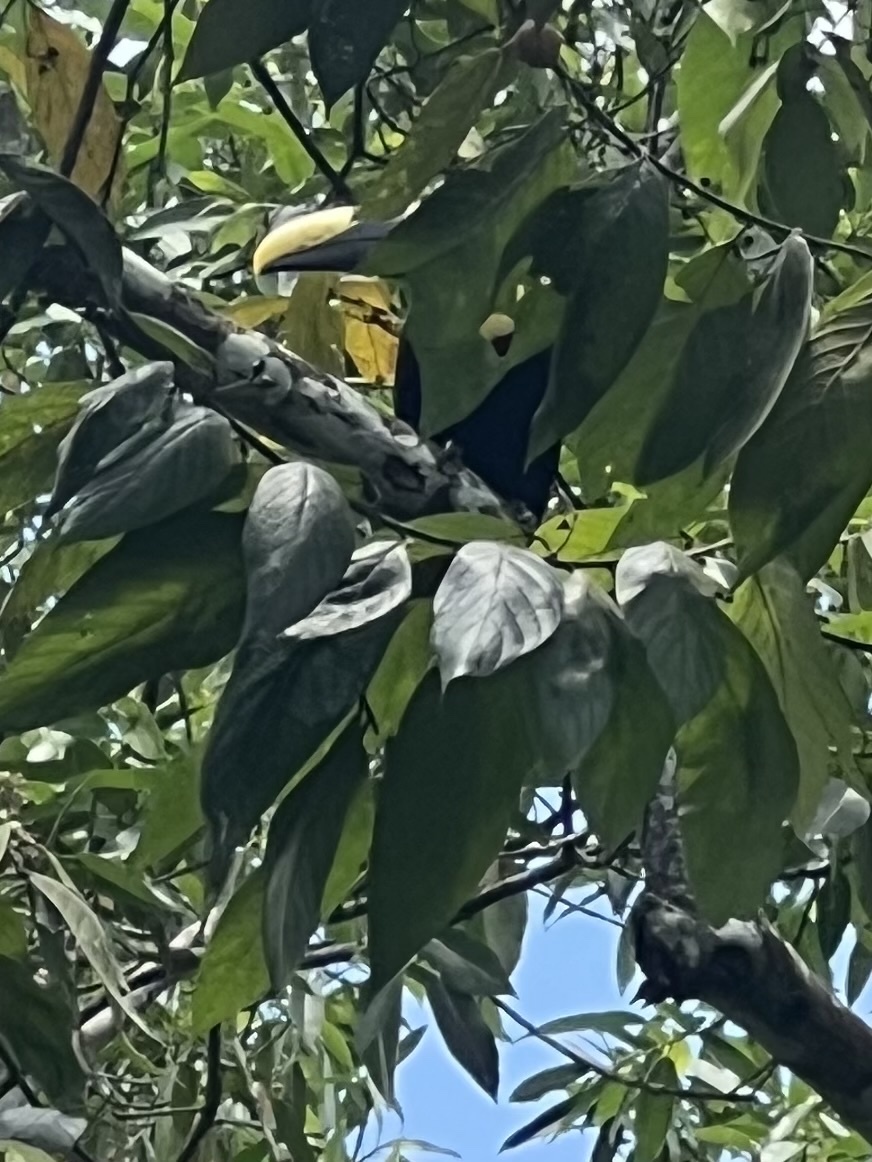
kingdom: Animalia
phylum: Chordata
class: Aves
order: Piciformes
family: Ramphastidae
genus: Ramphastos
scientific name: Ramphastos ambiguus
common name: Yellow-throated toucan
